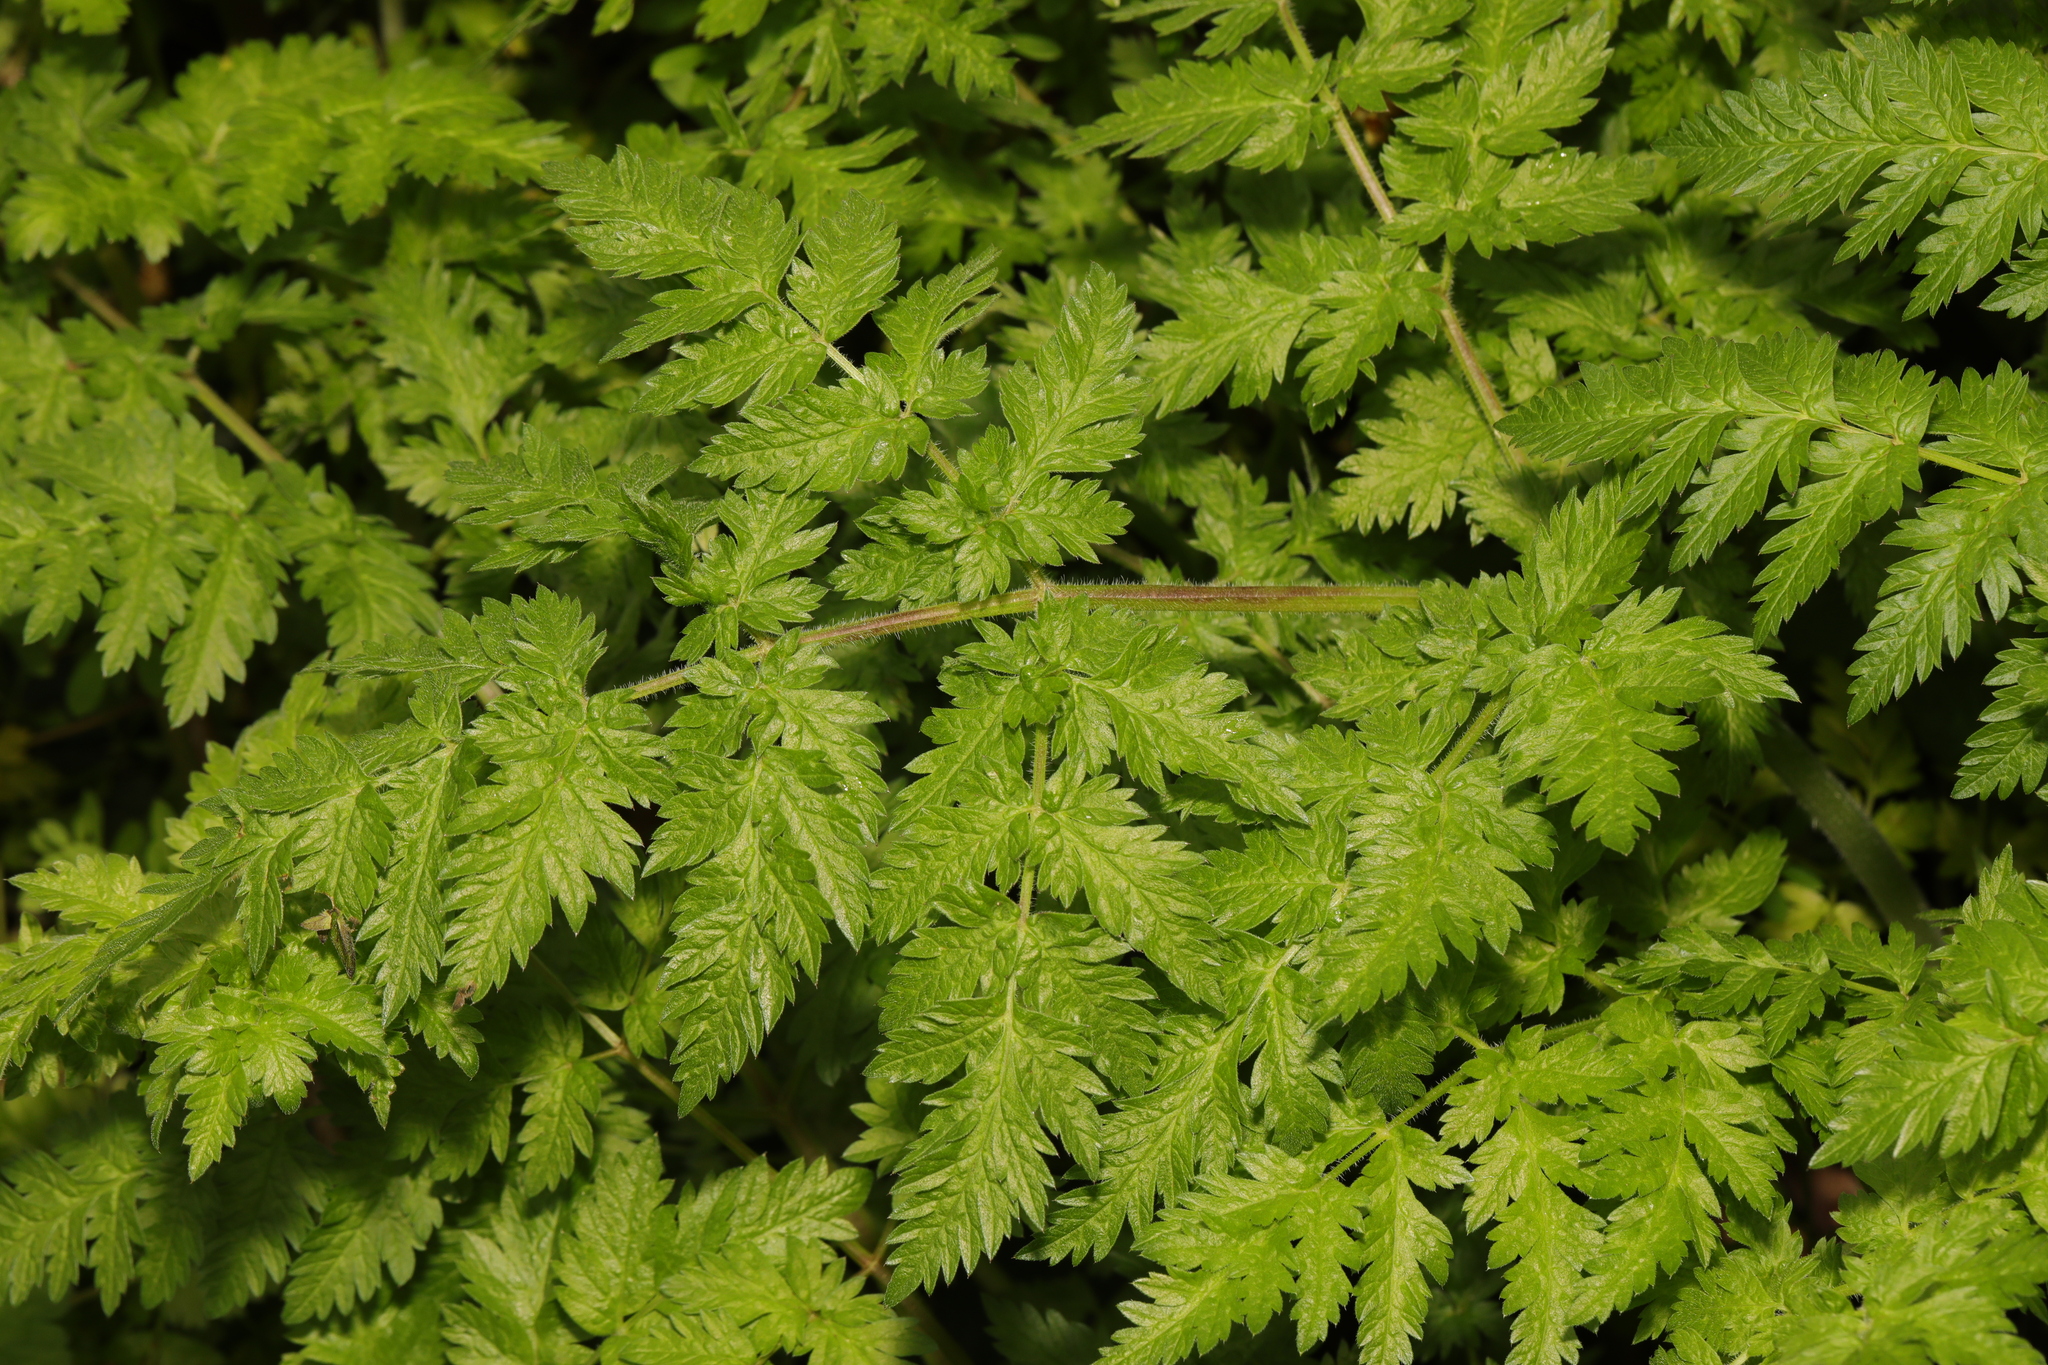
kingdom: Plantae
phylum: Tracheophyta
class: Magnoliopsida
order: Apiales
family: Apiaceae
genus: Anthriscus
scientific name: Anthriscus sylvestris
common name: Cow parsley
